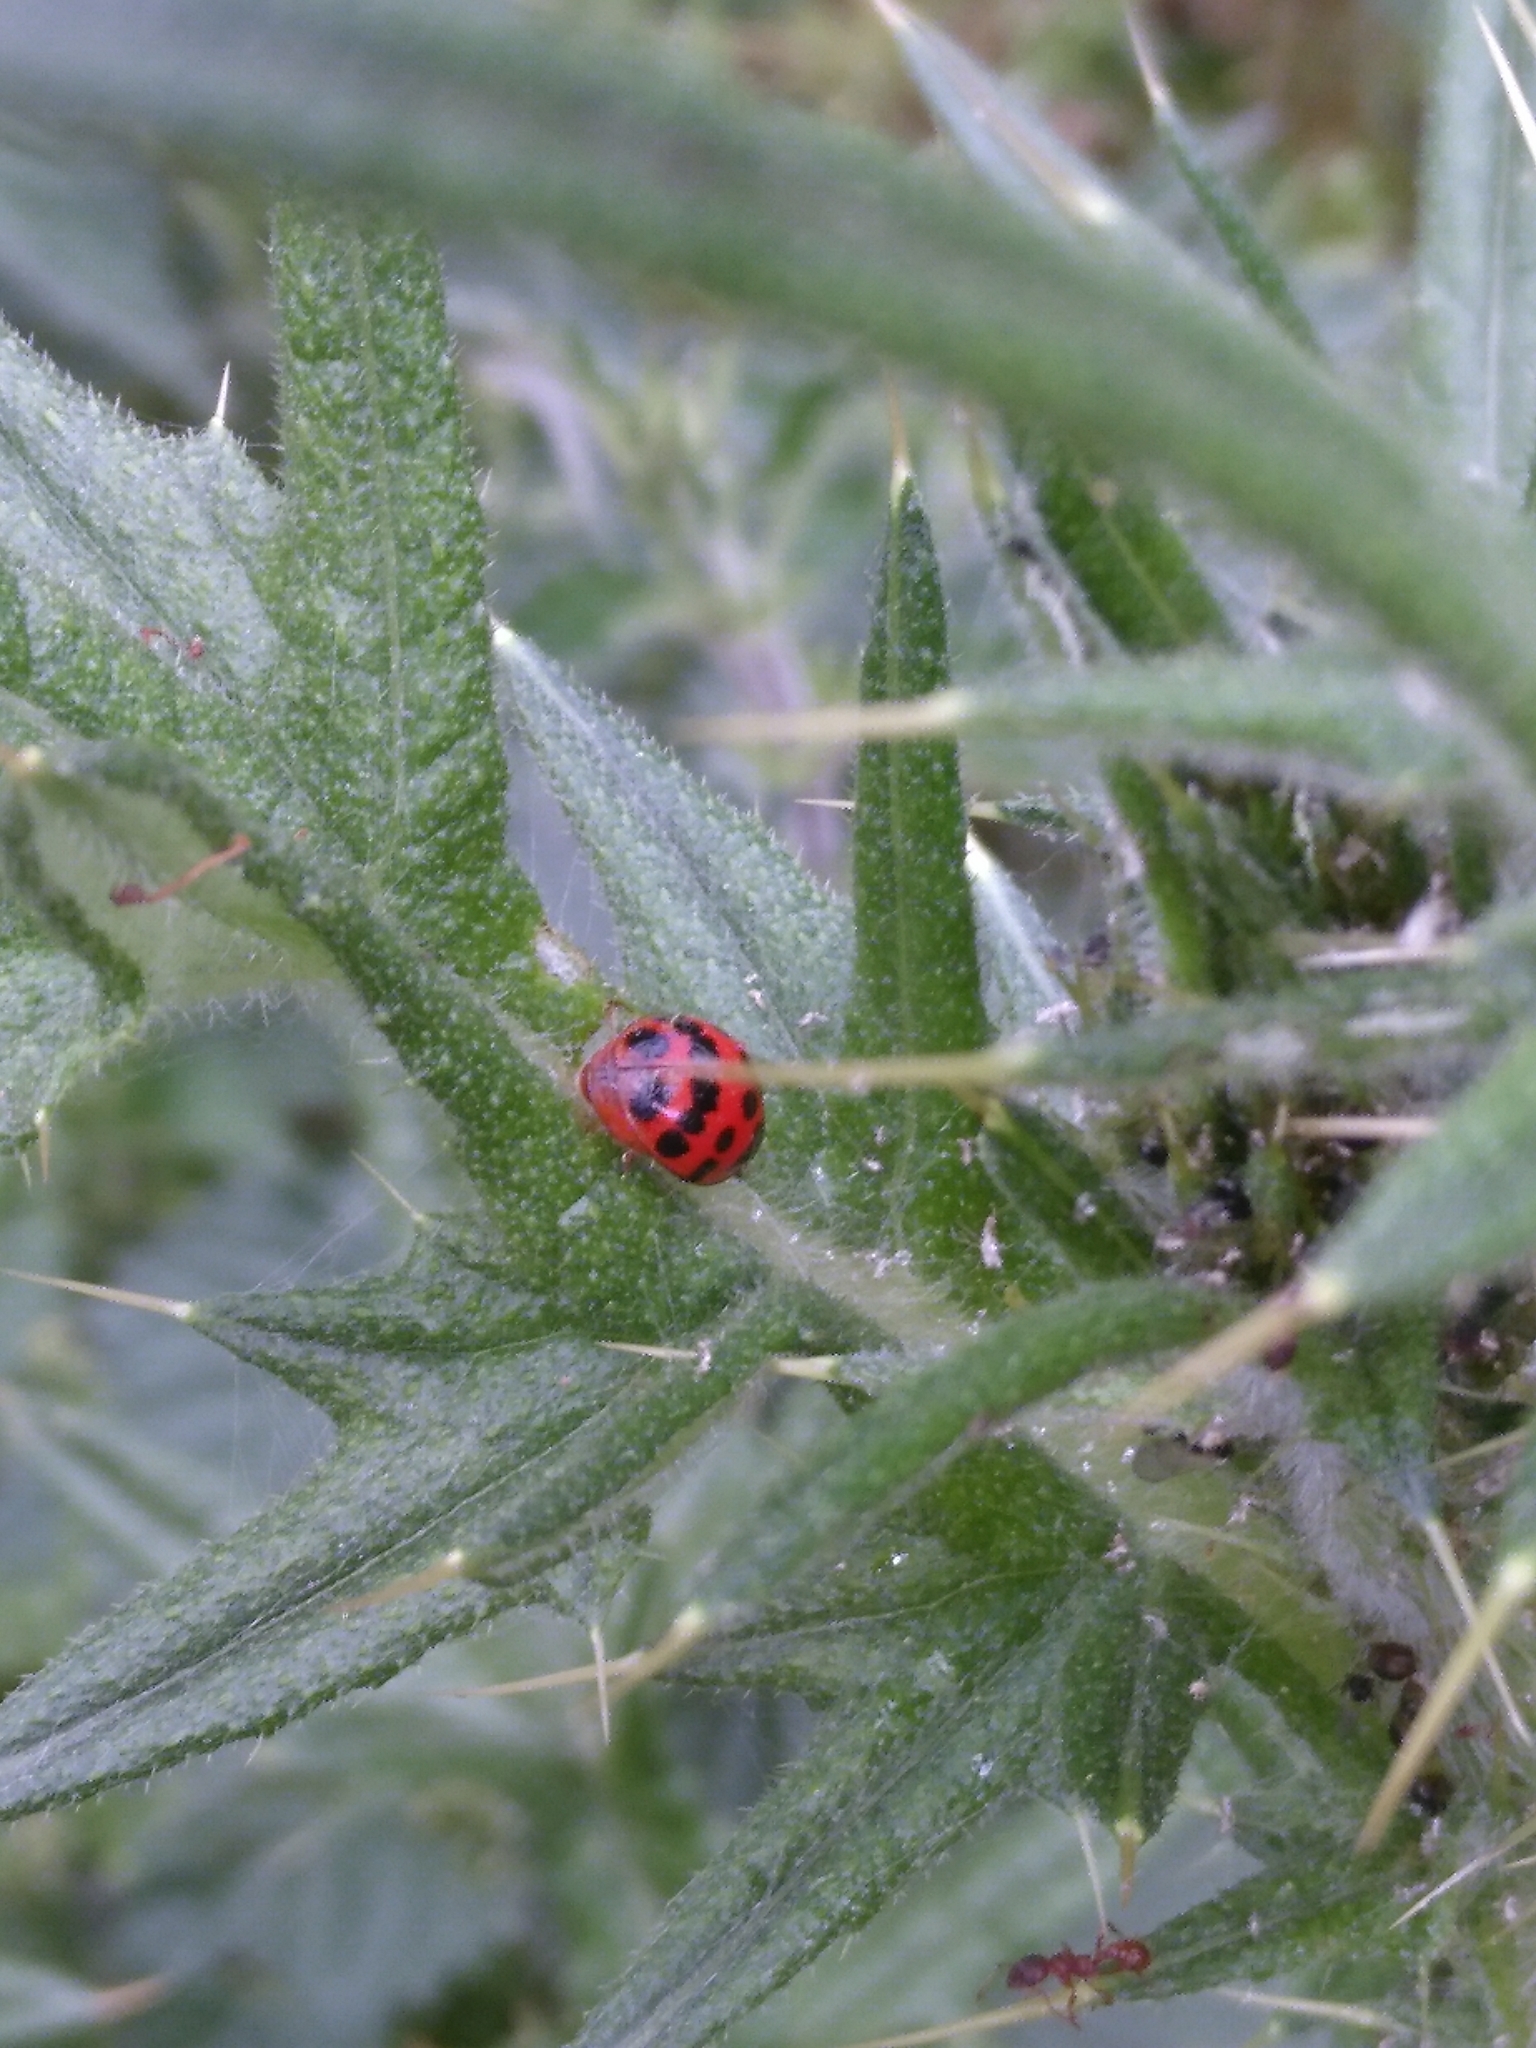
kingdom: Animalia
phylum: Arthropoda
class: Insecta
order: Coleoptera
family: Coccinellidae
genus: Harmonia
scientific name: Harmonia axyridis
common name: Harlequin ladybird
